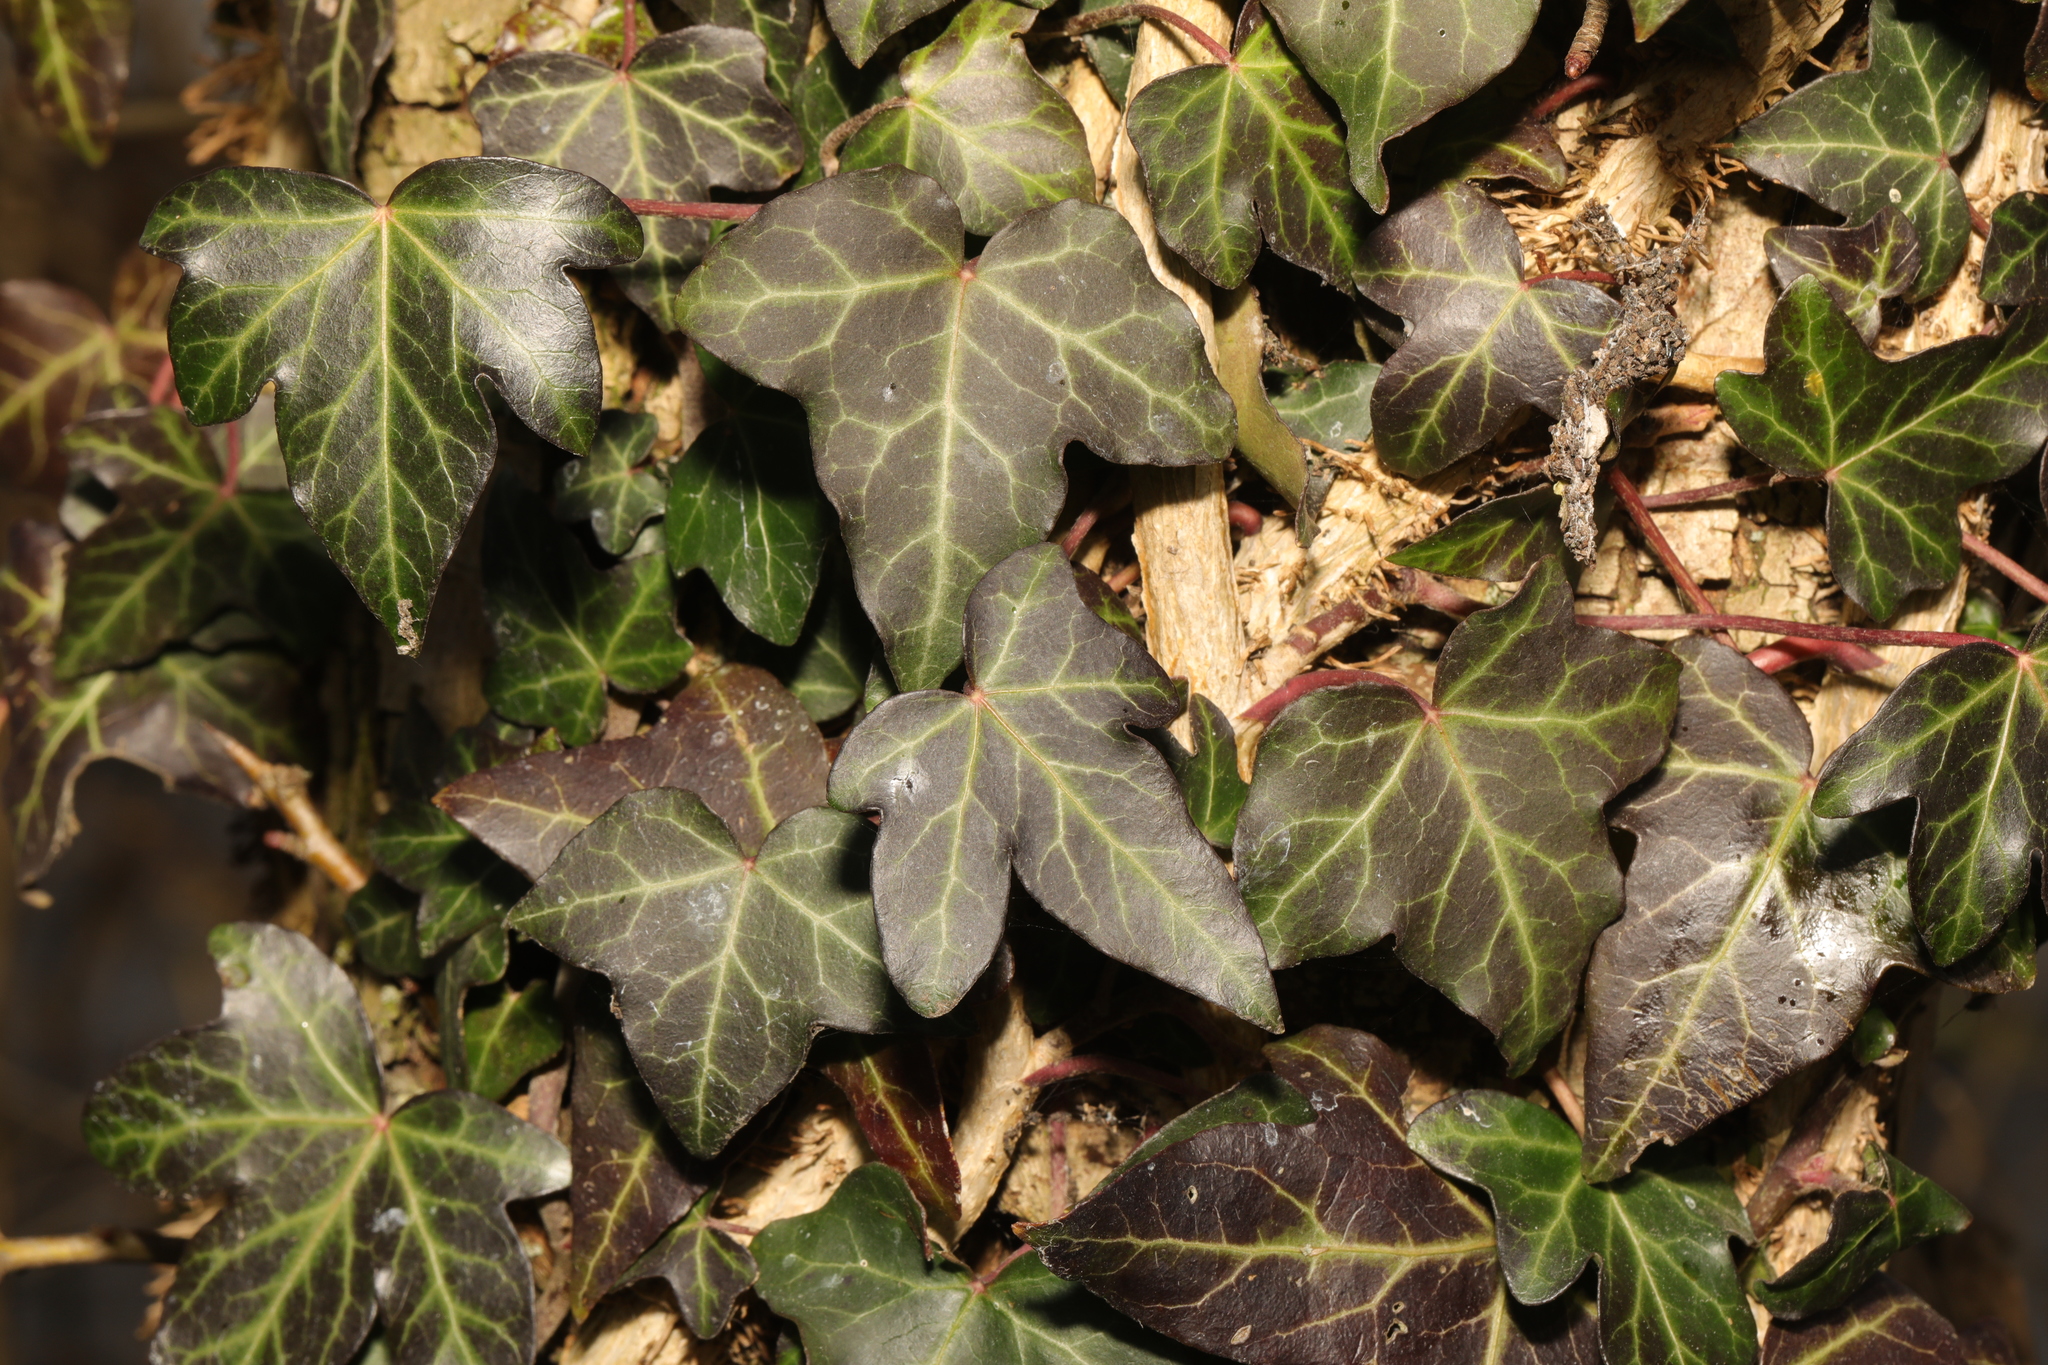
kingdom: Plantae
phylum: Tracheophyta
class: Magnoliopsida
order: Apiales
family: Araliaceae
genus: Hedera
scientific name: Hedera helix
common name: Ivy
